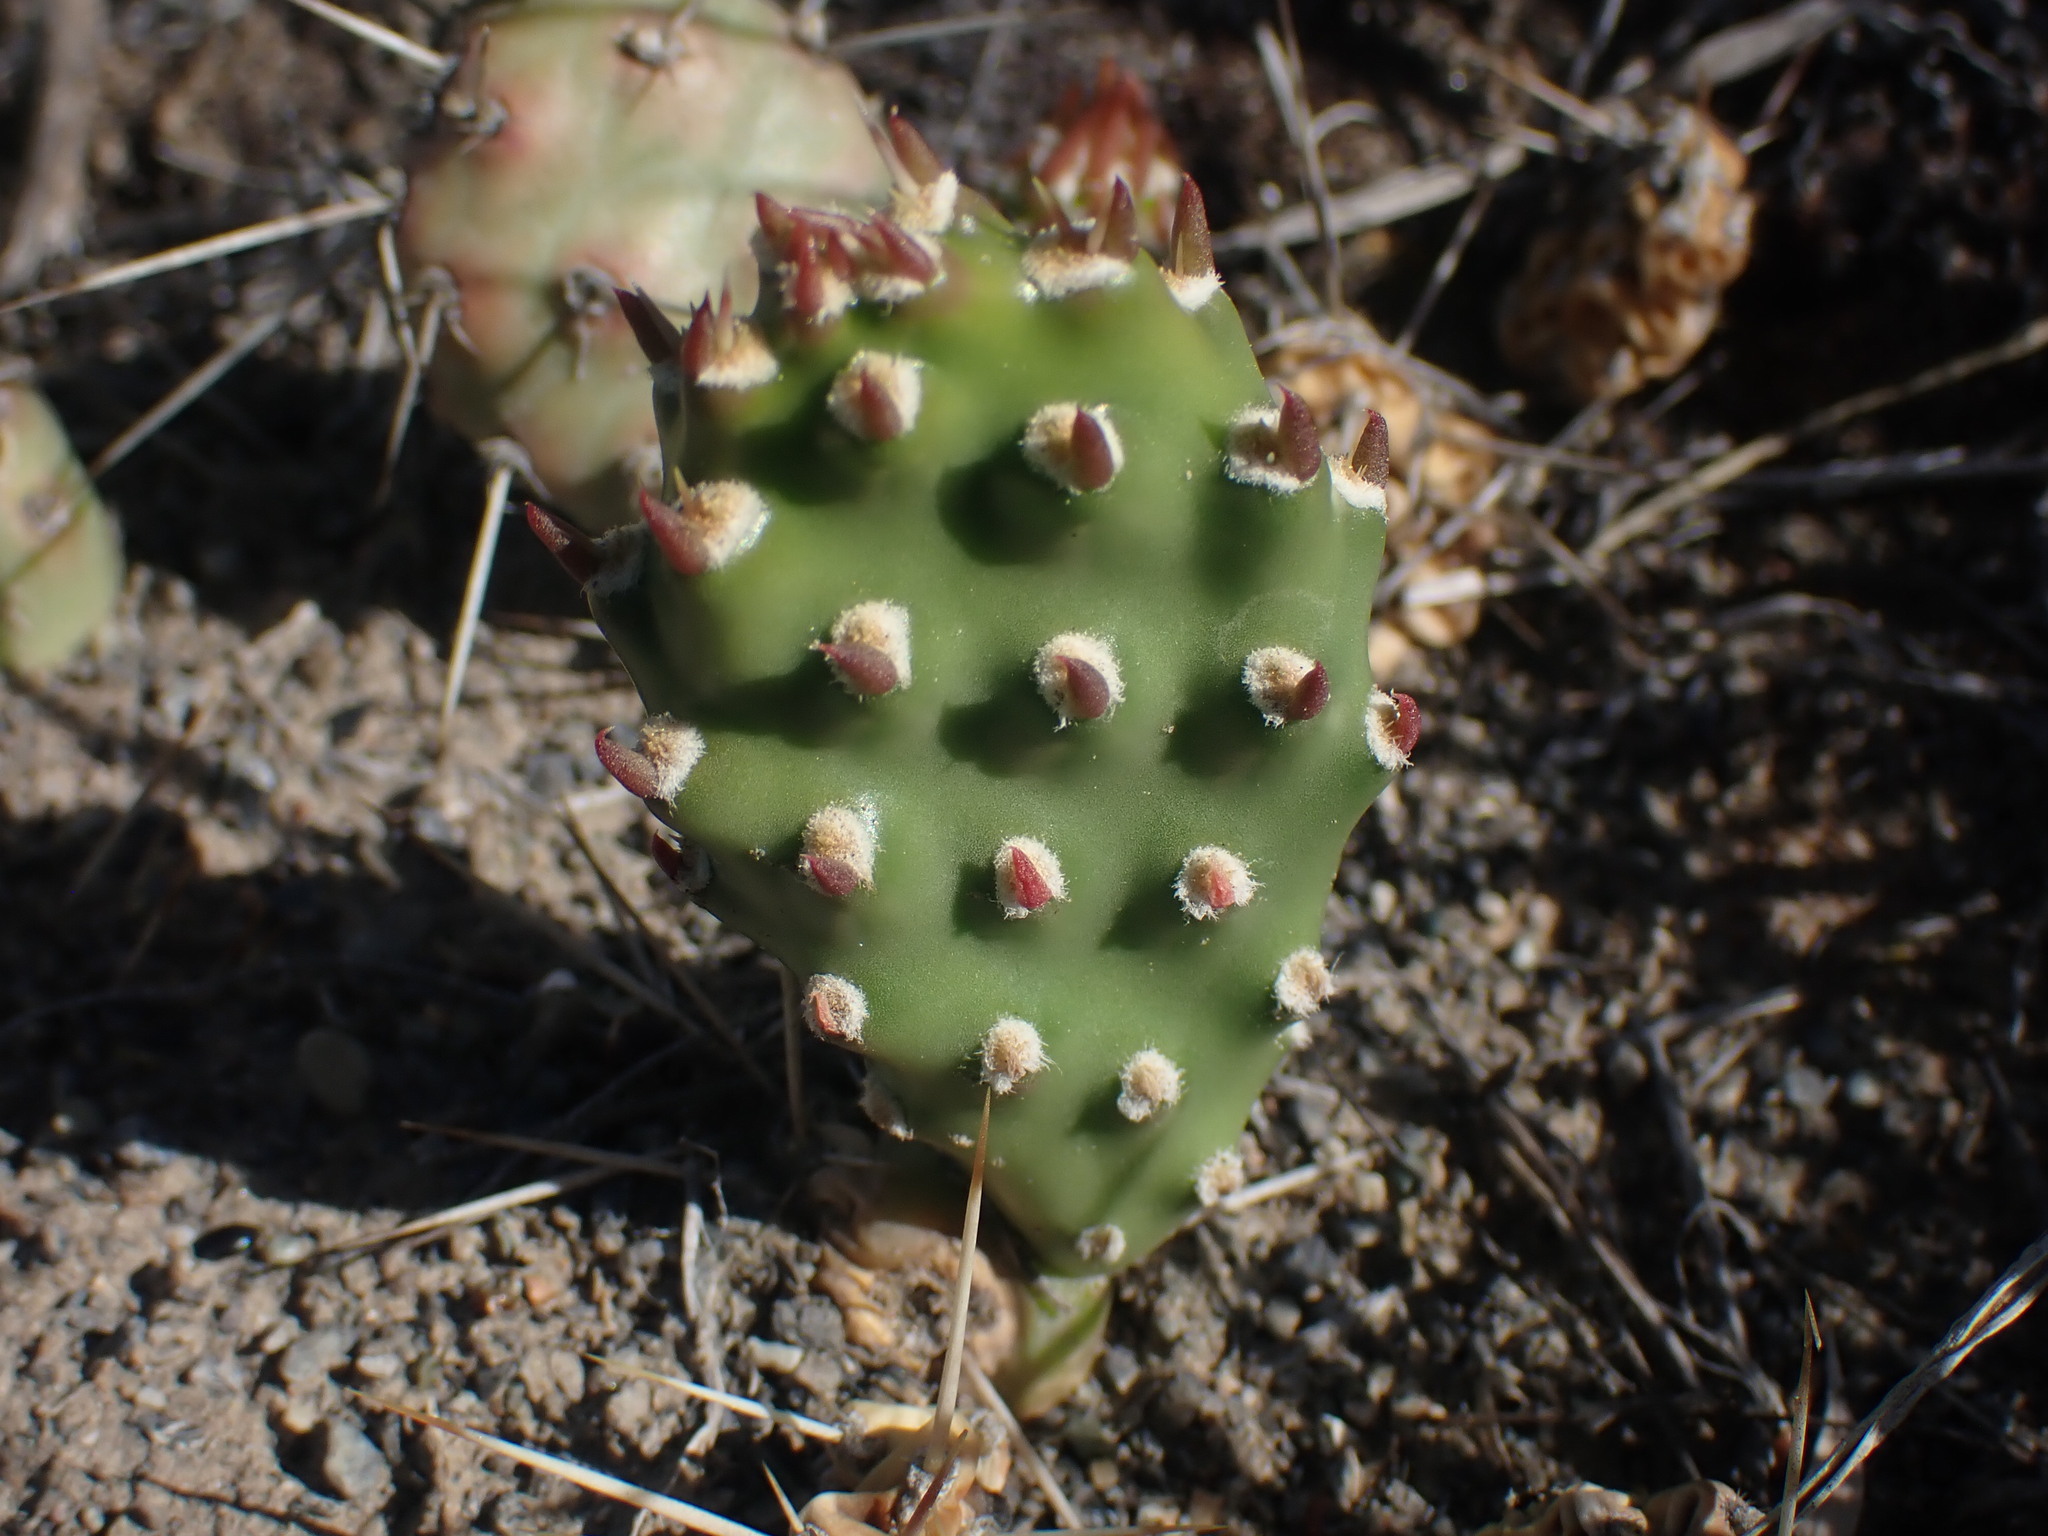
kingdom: Plantae
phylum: Tracheophyta
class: Magnoliopsida
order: Caryophyllales
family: Cactaceae
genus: Opuntia
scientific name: Opuntia fragilis
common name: Brittle cactus
